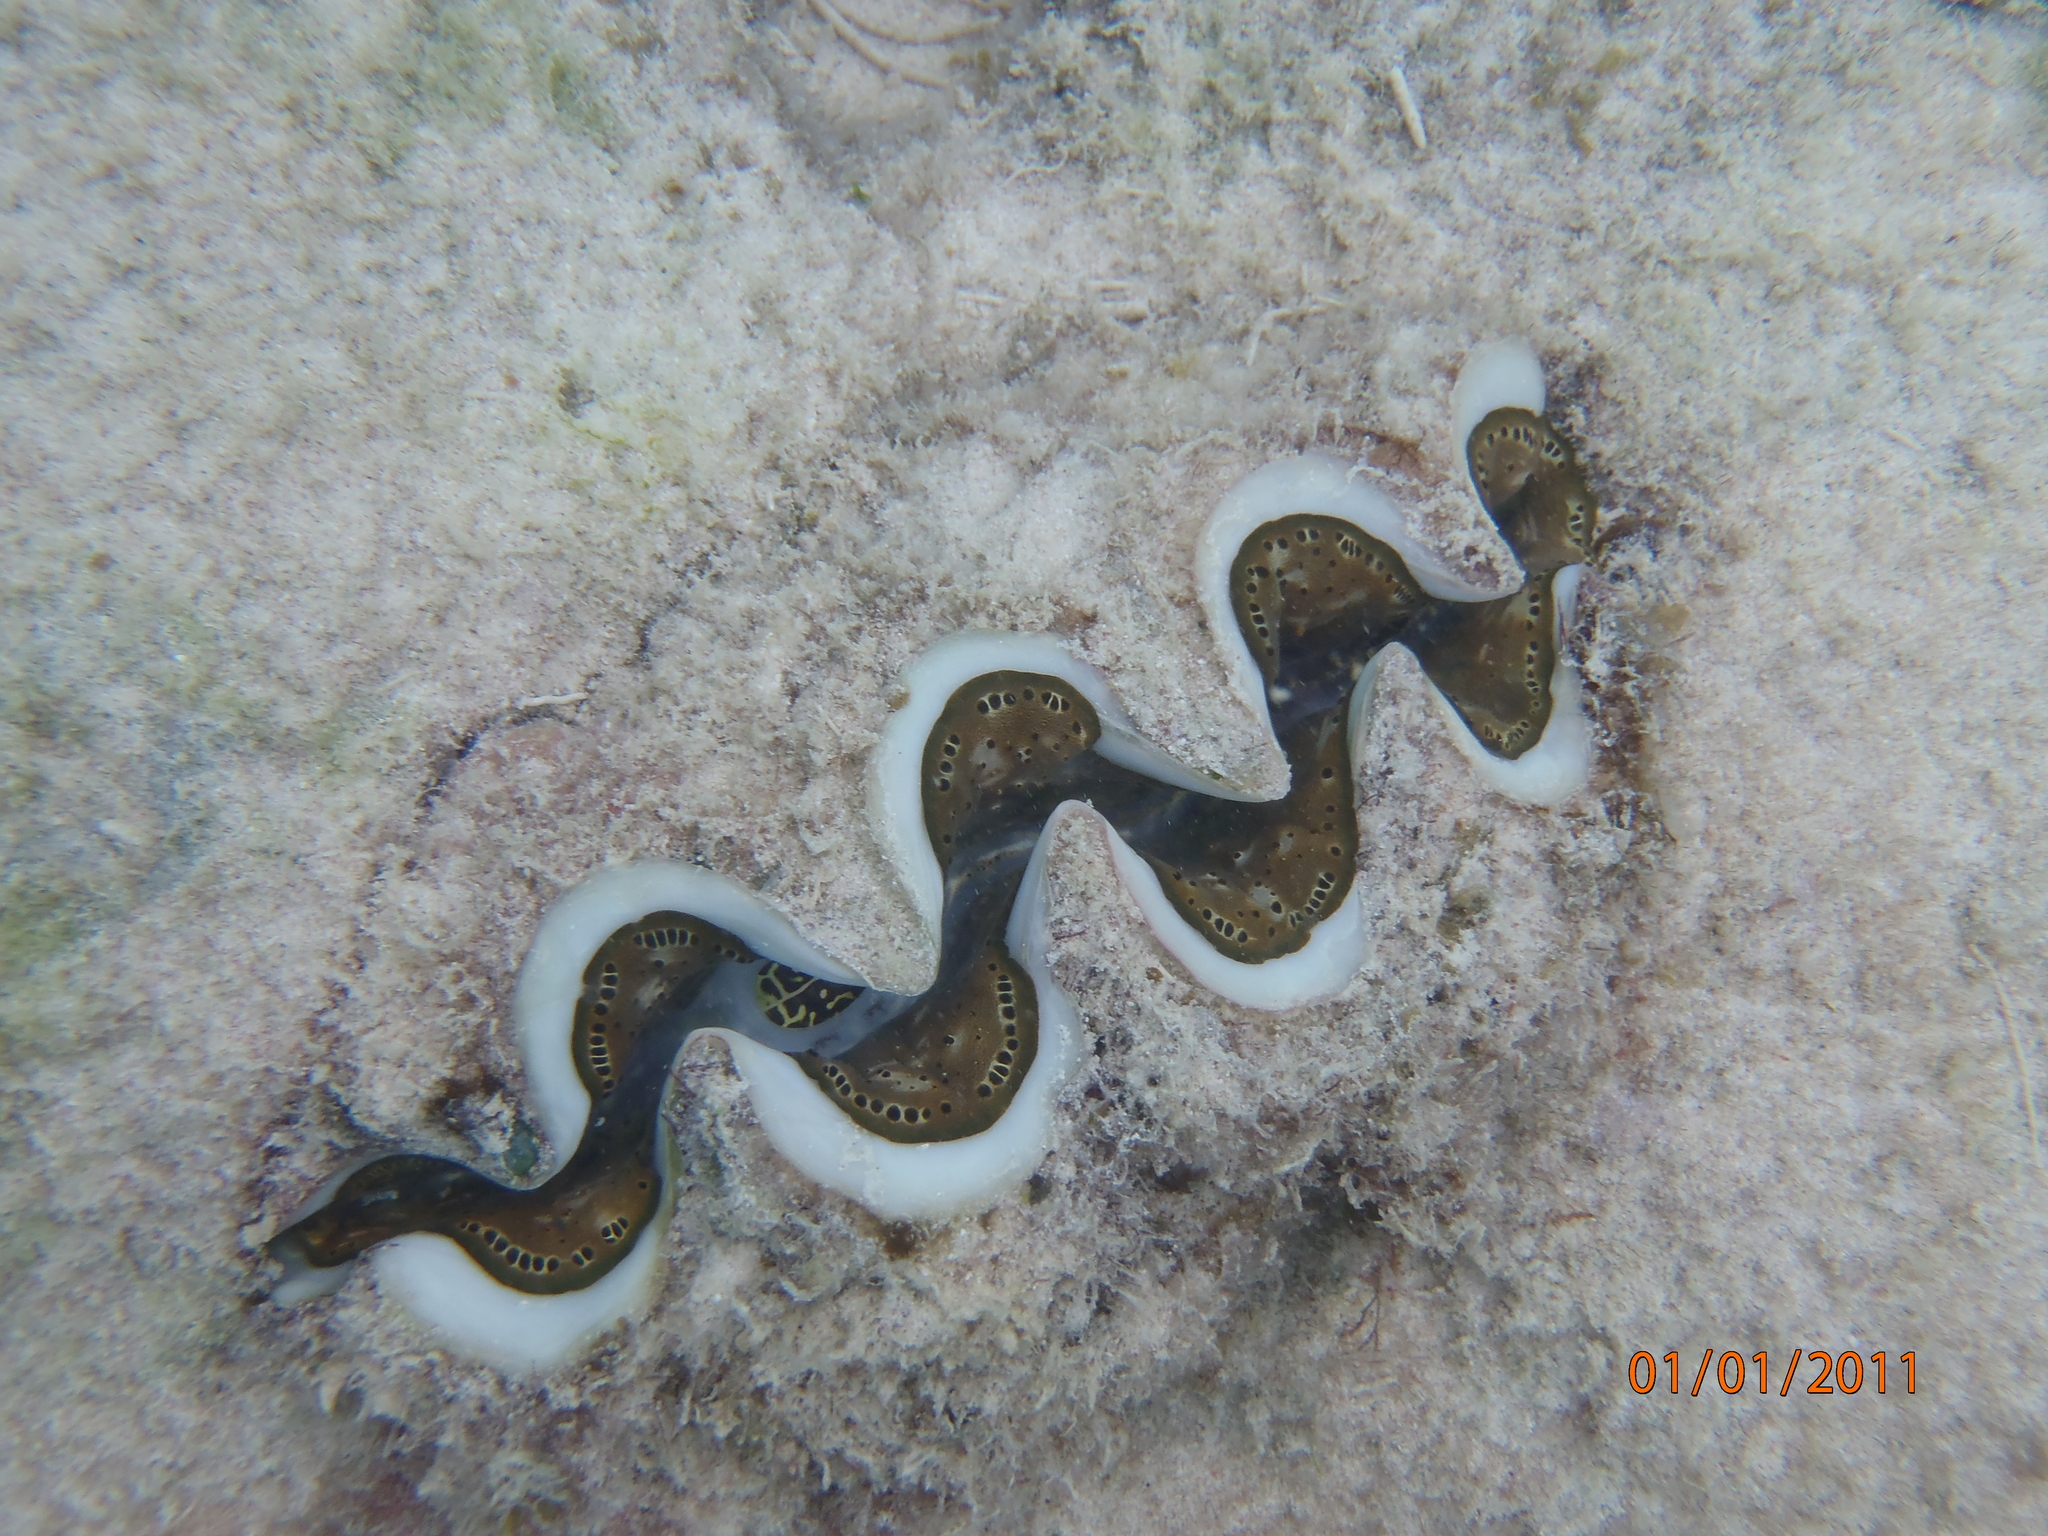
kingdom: Animalia
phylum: Mollusca
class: Bivalvia
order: Cardiida
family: Cardiidae
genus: Tridacna
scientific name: Tridacna maxima
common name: Small giant clam
